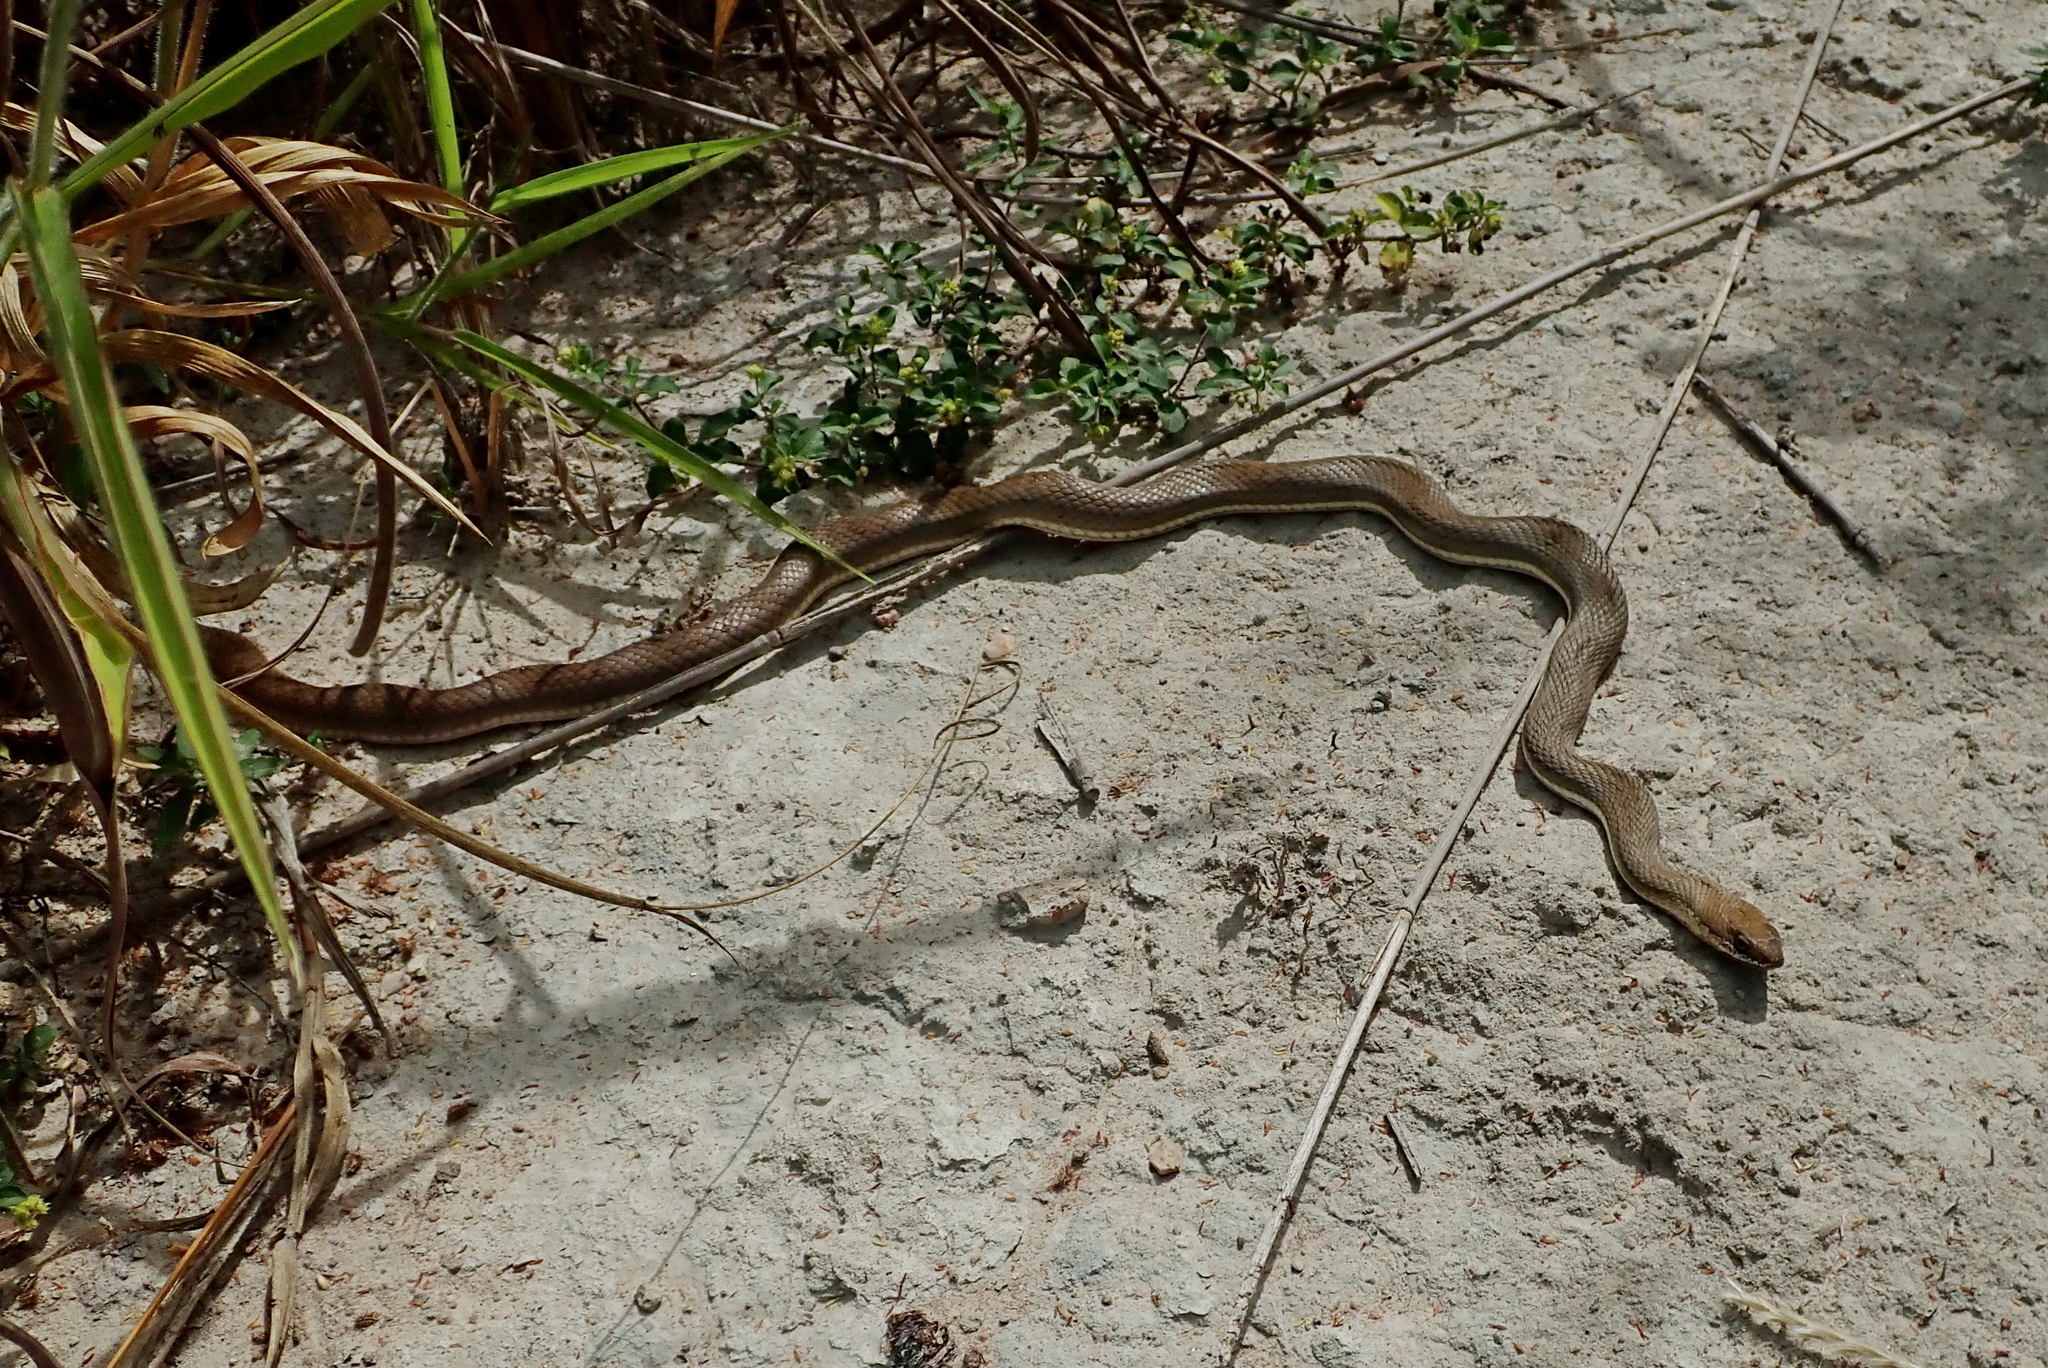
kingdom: Animalia
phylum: Chordata
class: Squamata
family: Colubridae
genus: Philodryas
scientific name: Philodryas nattereri
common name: Paraguay green racer
